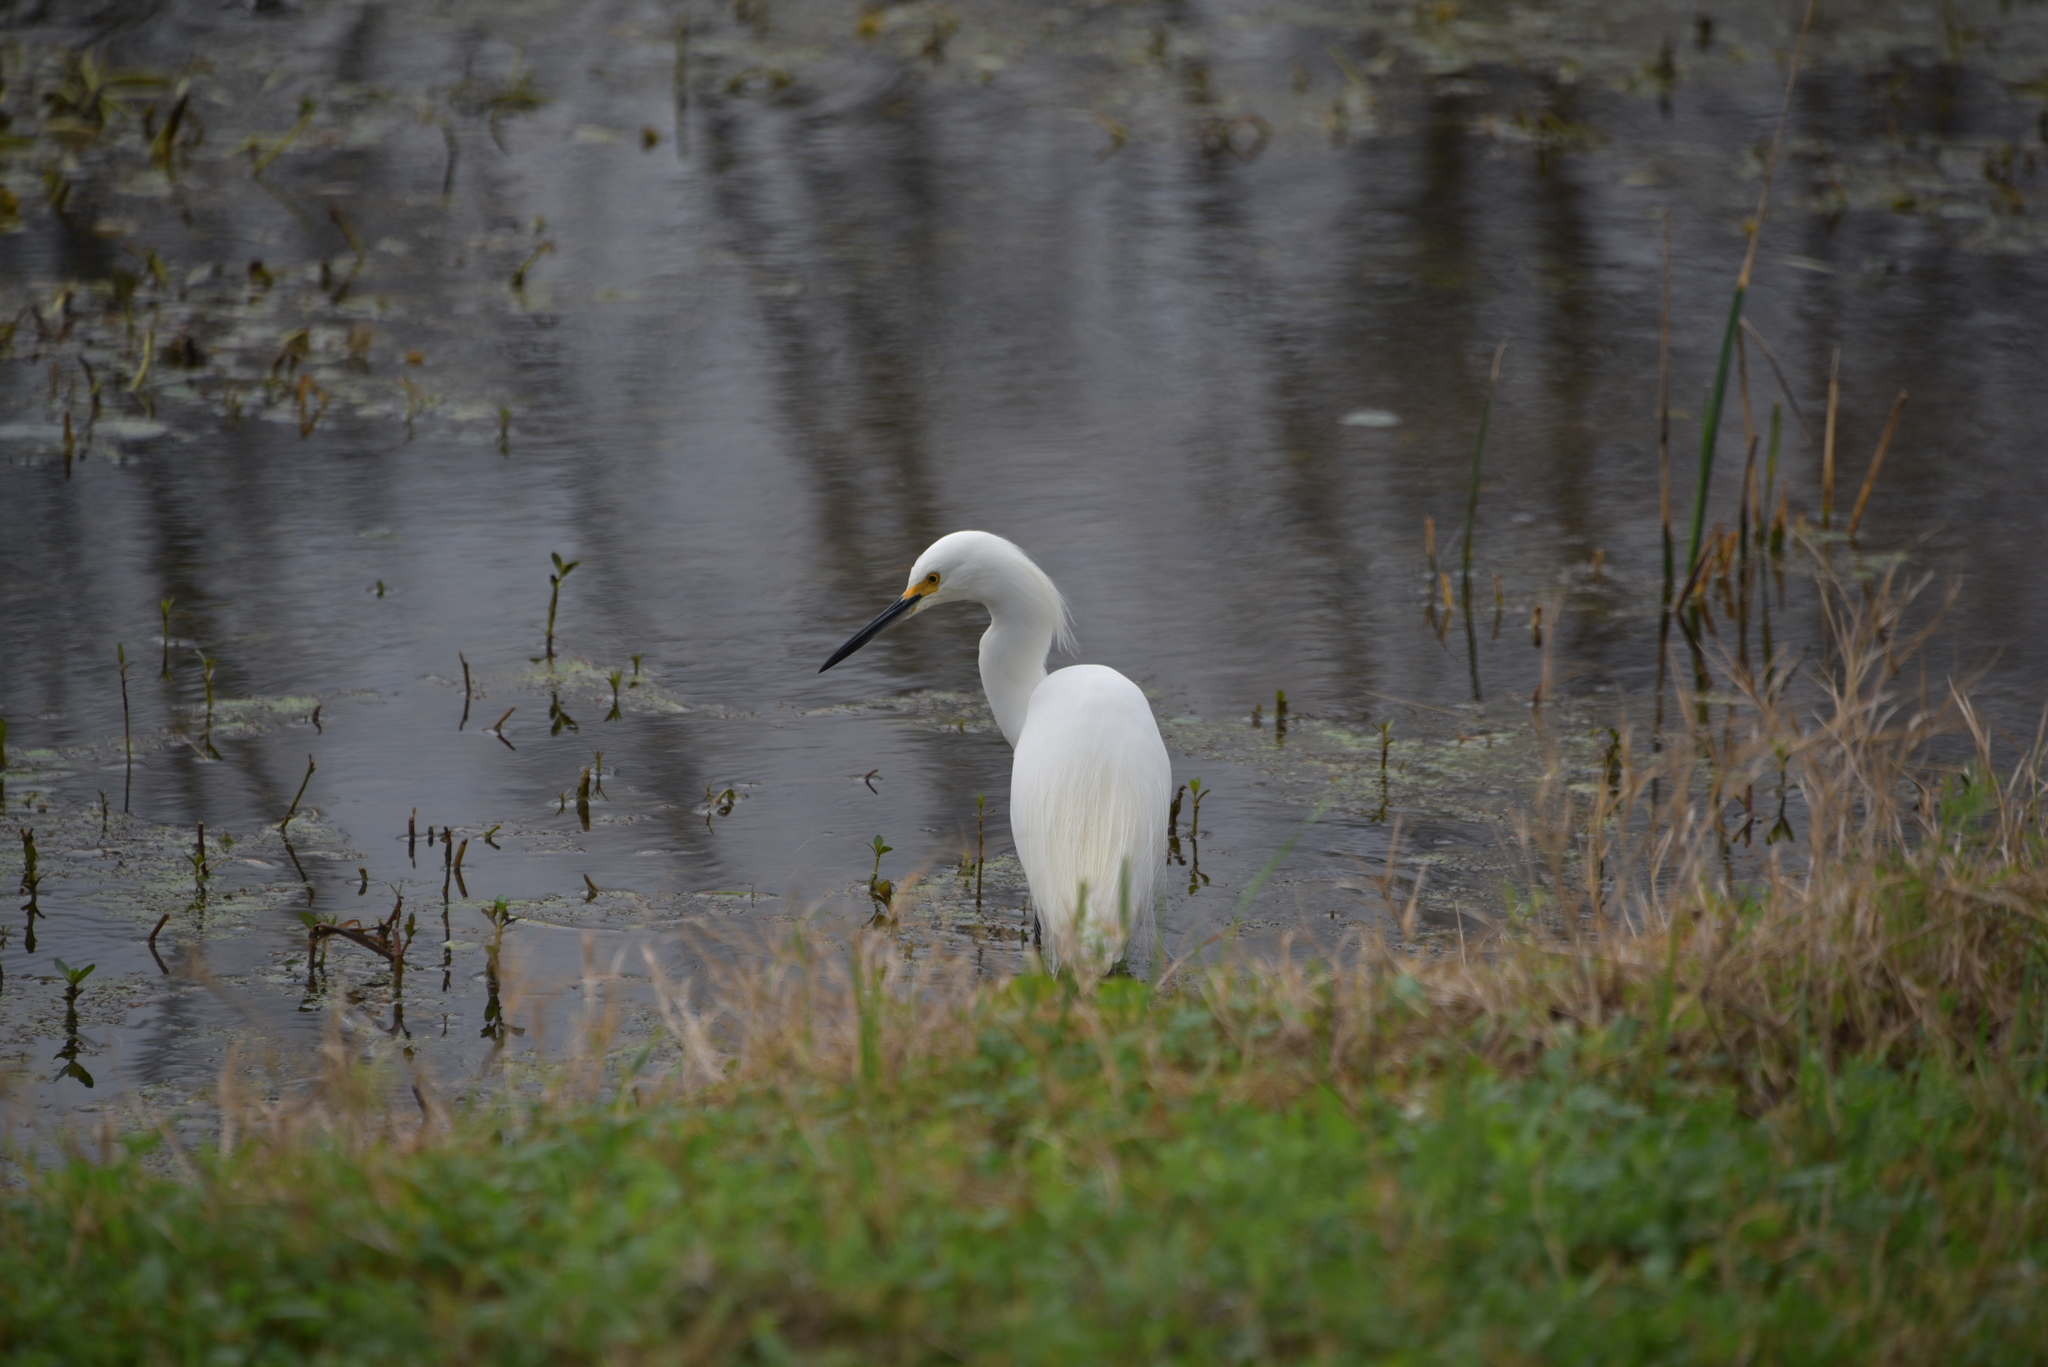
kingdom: Animalia
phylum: Chordata
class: Aves
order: Pelecaniformes
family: Ardeidae
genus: Egretta
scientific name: Egretta thula
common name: Snowy egret
